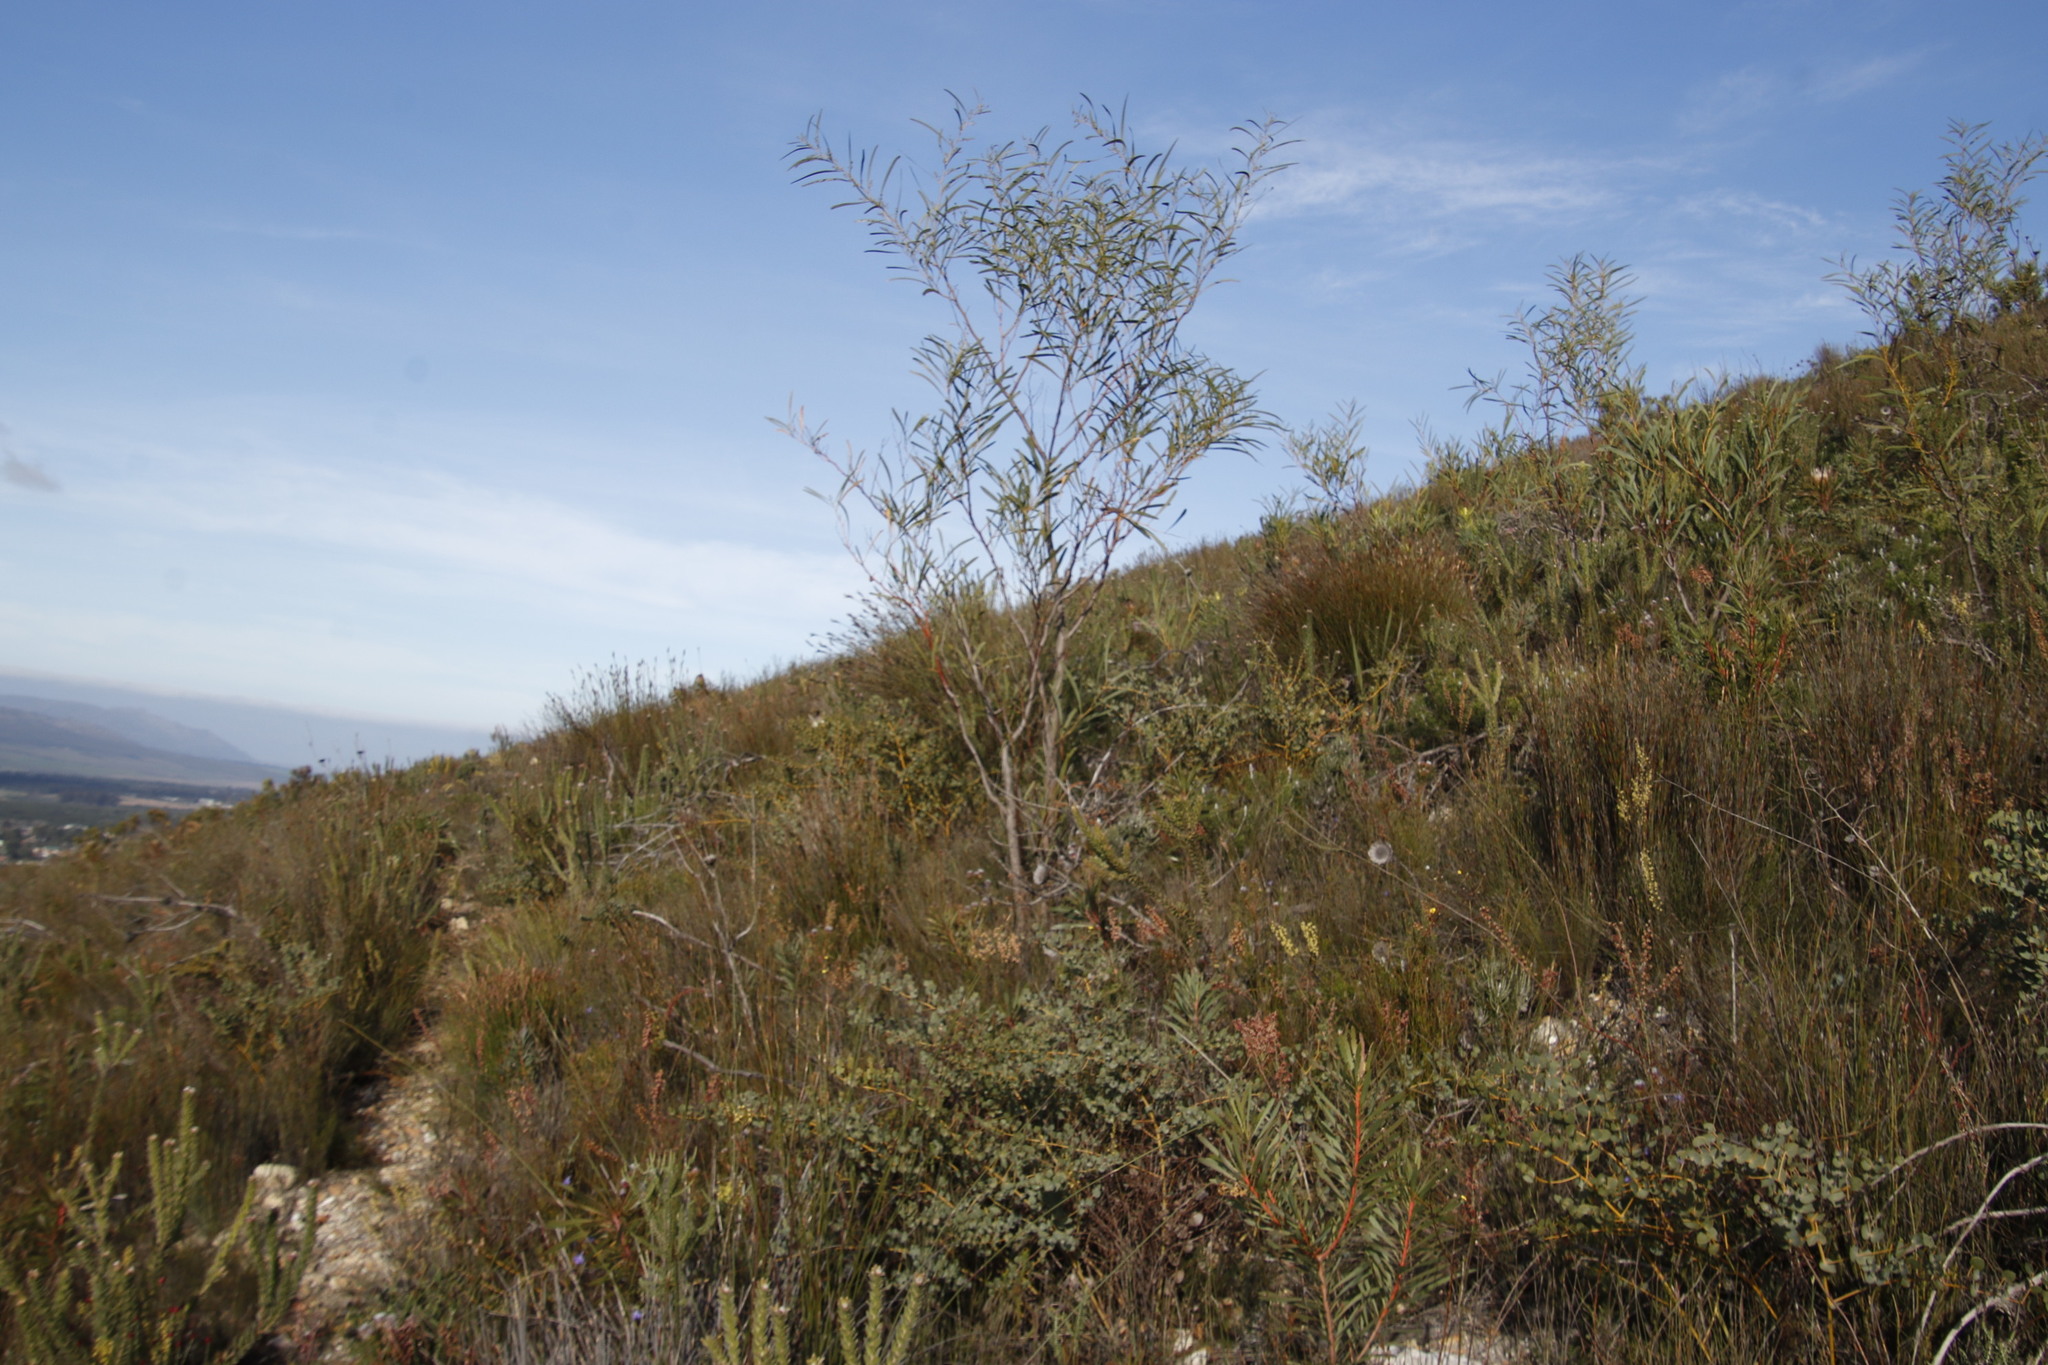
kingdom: Plantae
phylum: Tracheophyta
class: Magnoliopsida
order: Fabales
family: Fabaceae
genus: Acacia
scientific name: Acacia saligna
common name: Orange wattle
